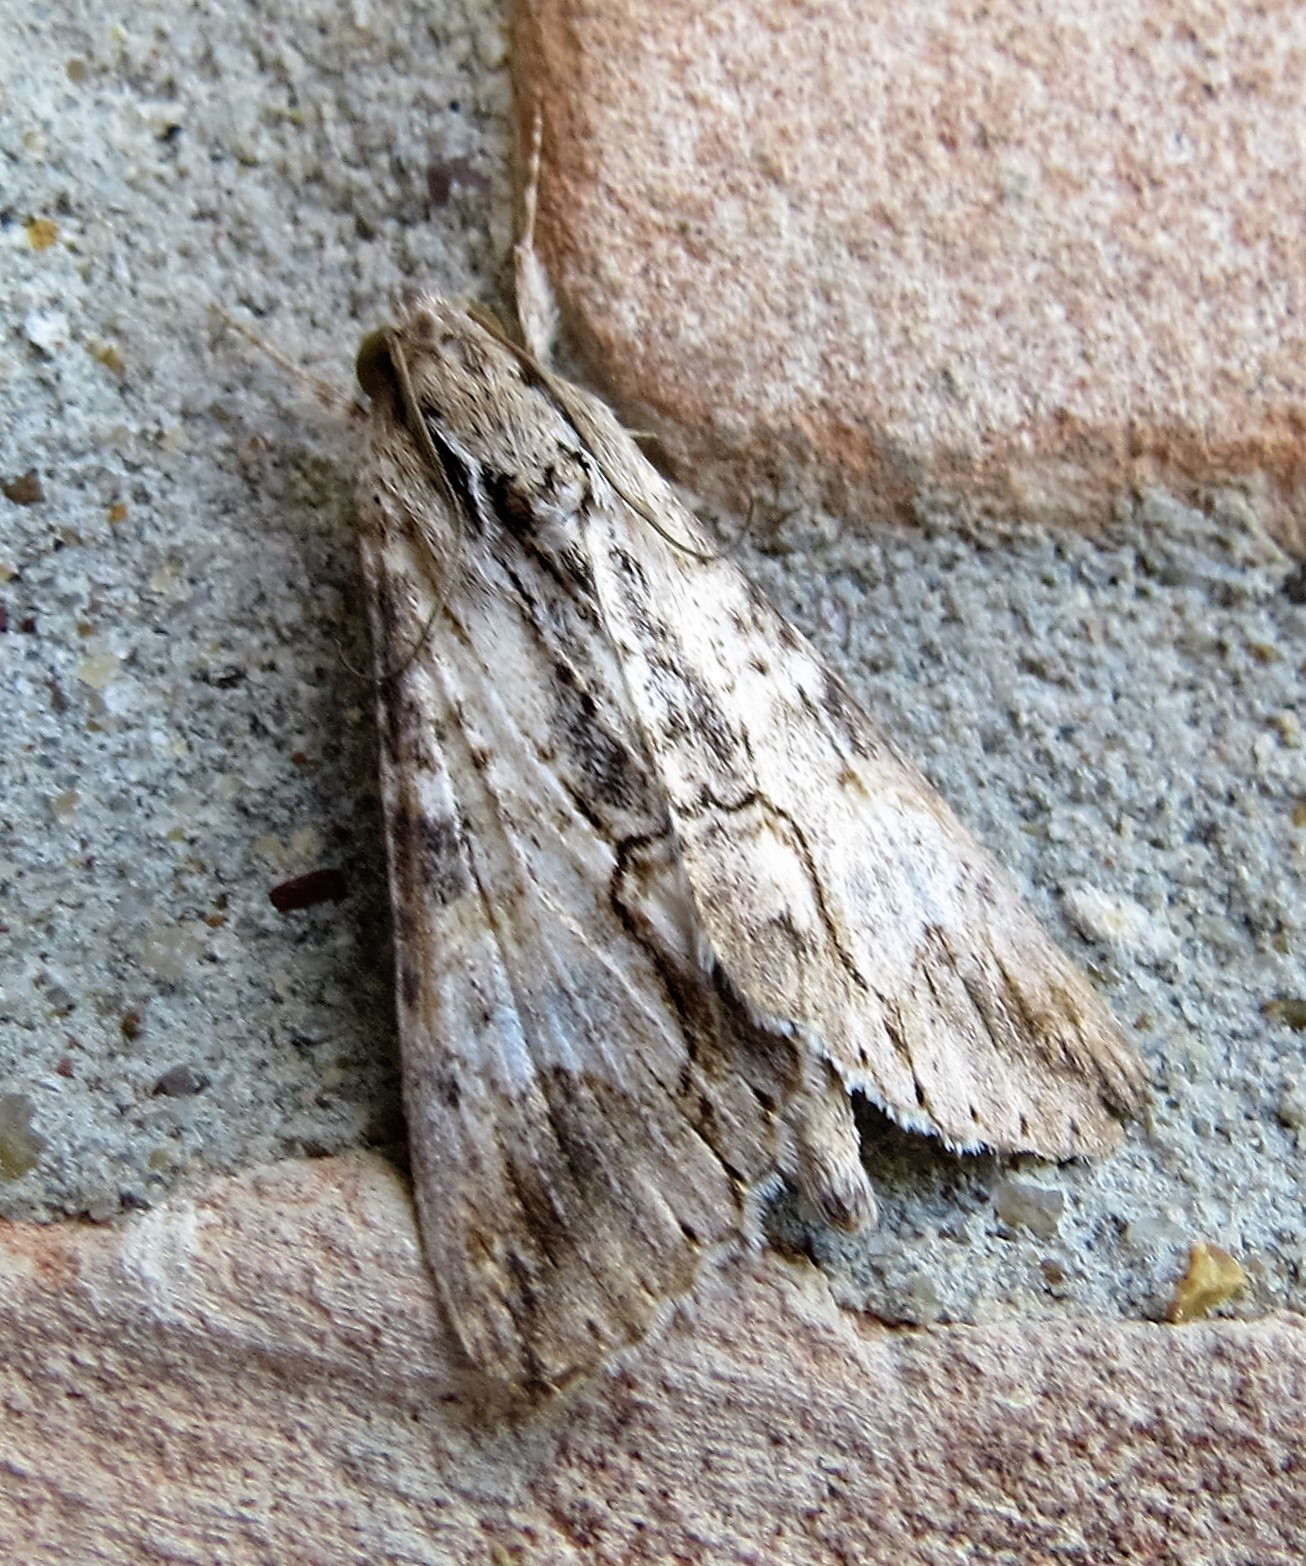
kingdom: Animalia
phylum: Arthropoda
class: Insecta
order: Lepidoptera
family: Erebidae
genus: Melipotis
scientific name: Melipotis acontioides
